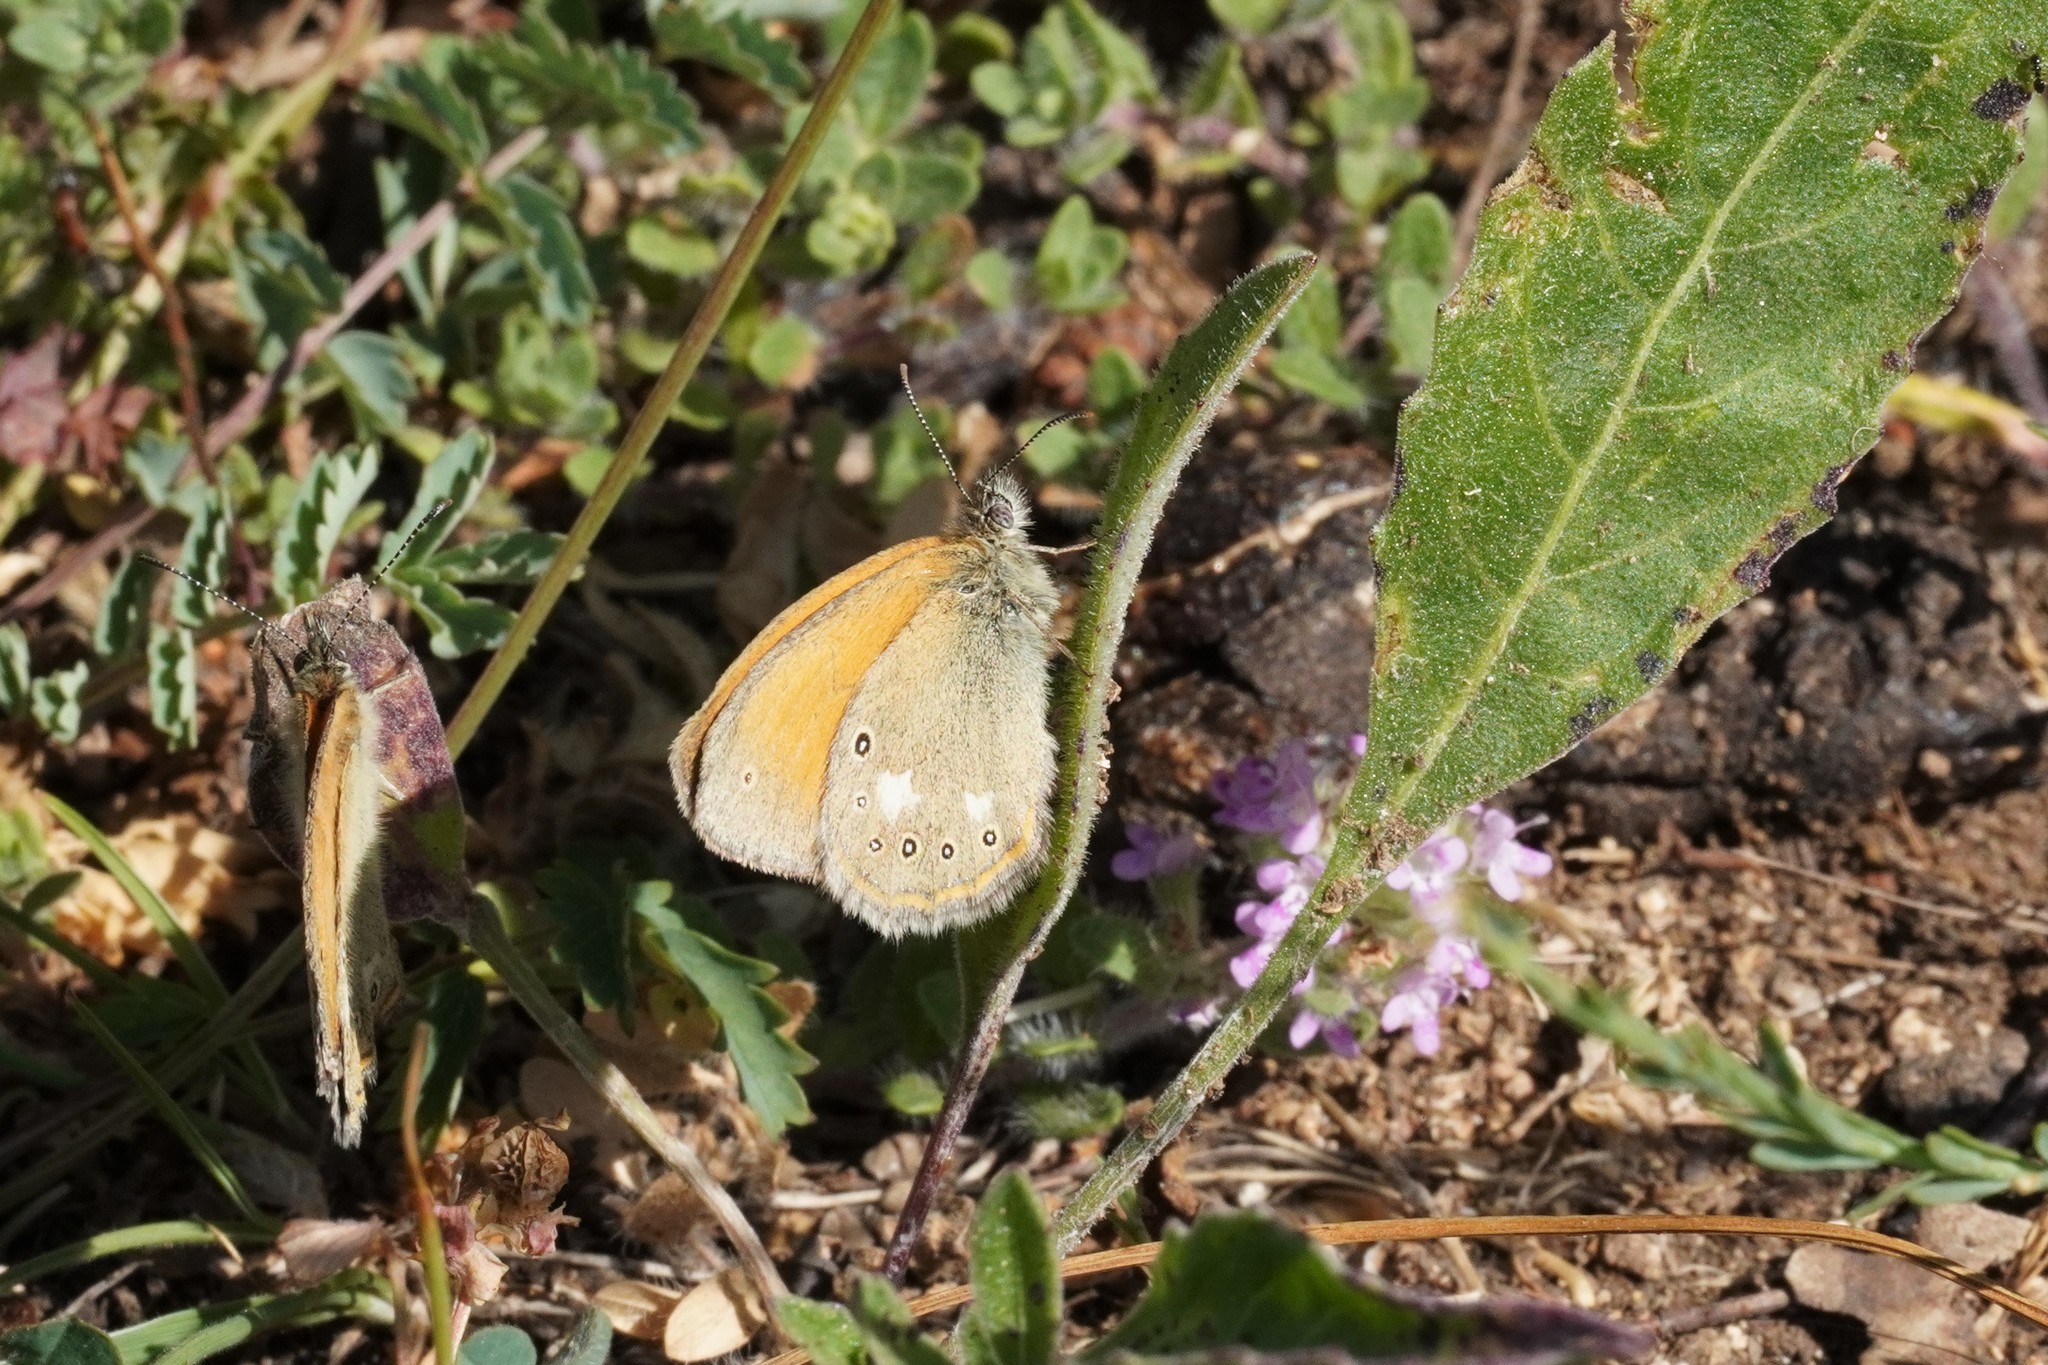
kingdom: Animalia
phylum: Arthropoda
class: Insecta
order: Lepidoptera
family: Nymphalidae
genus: Coenonympha
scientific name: Coenonympha iphis
